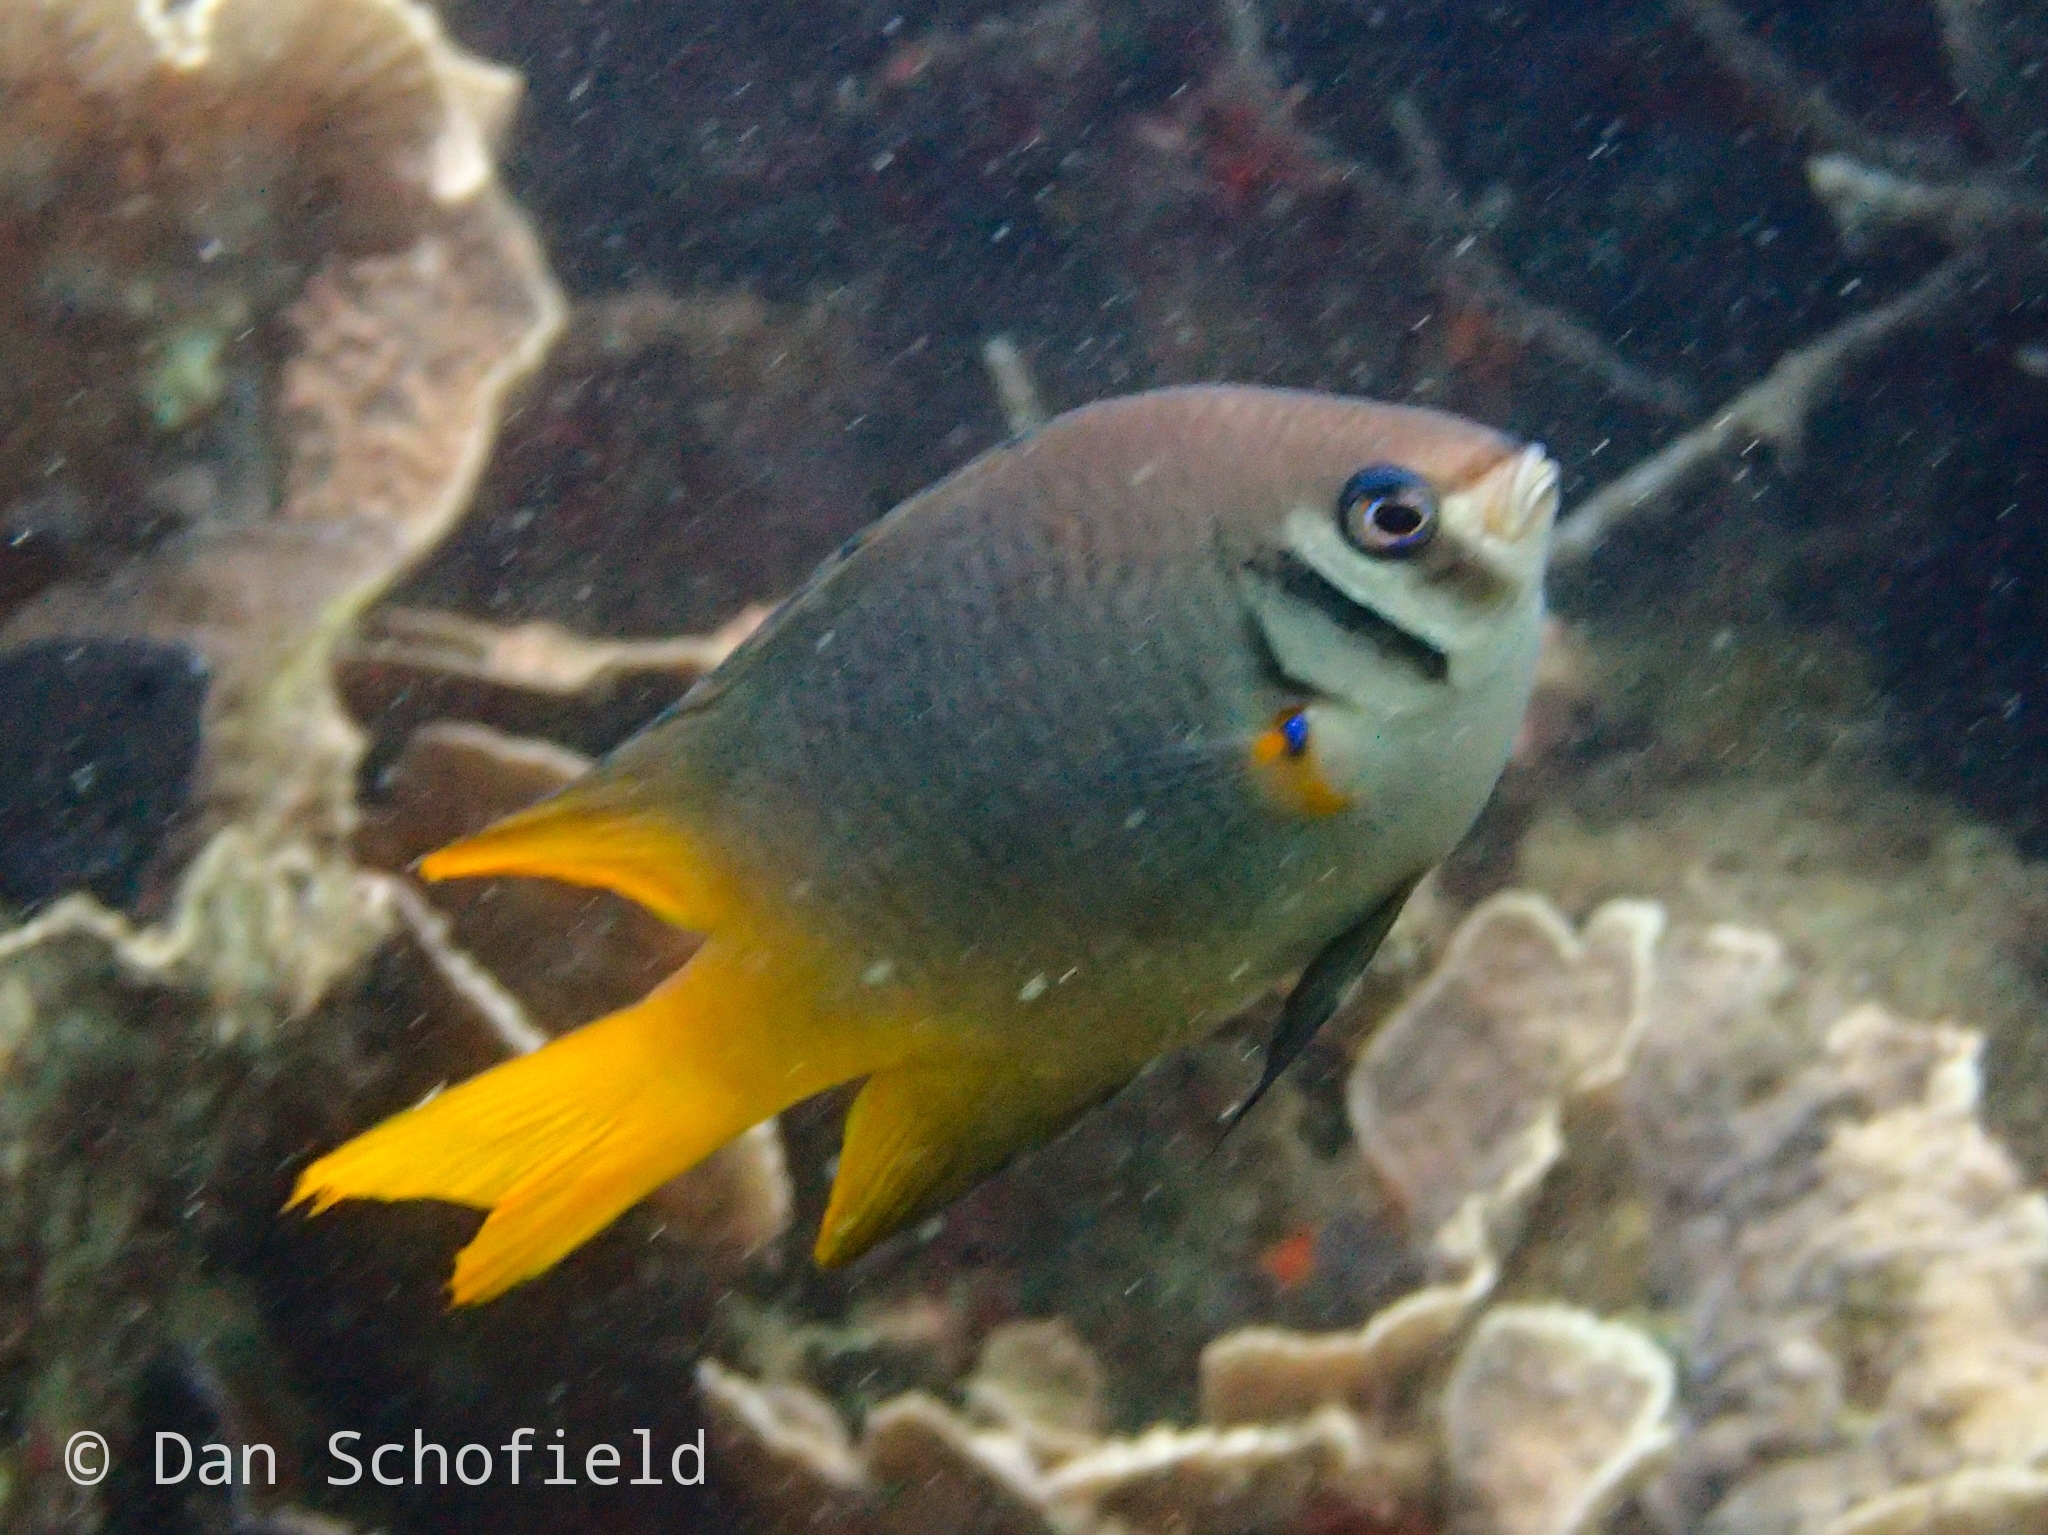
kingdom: Animalia
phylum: Chordata
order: Perciformes
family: Pomacentridae
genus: Neoglyphidodon
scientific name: Neoglyphidodon nigroris
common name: Behn's damsel
